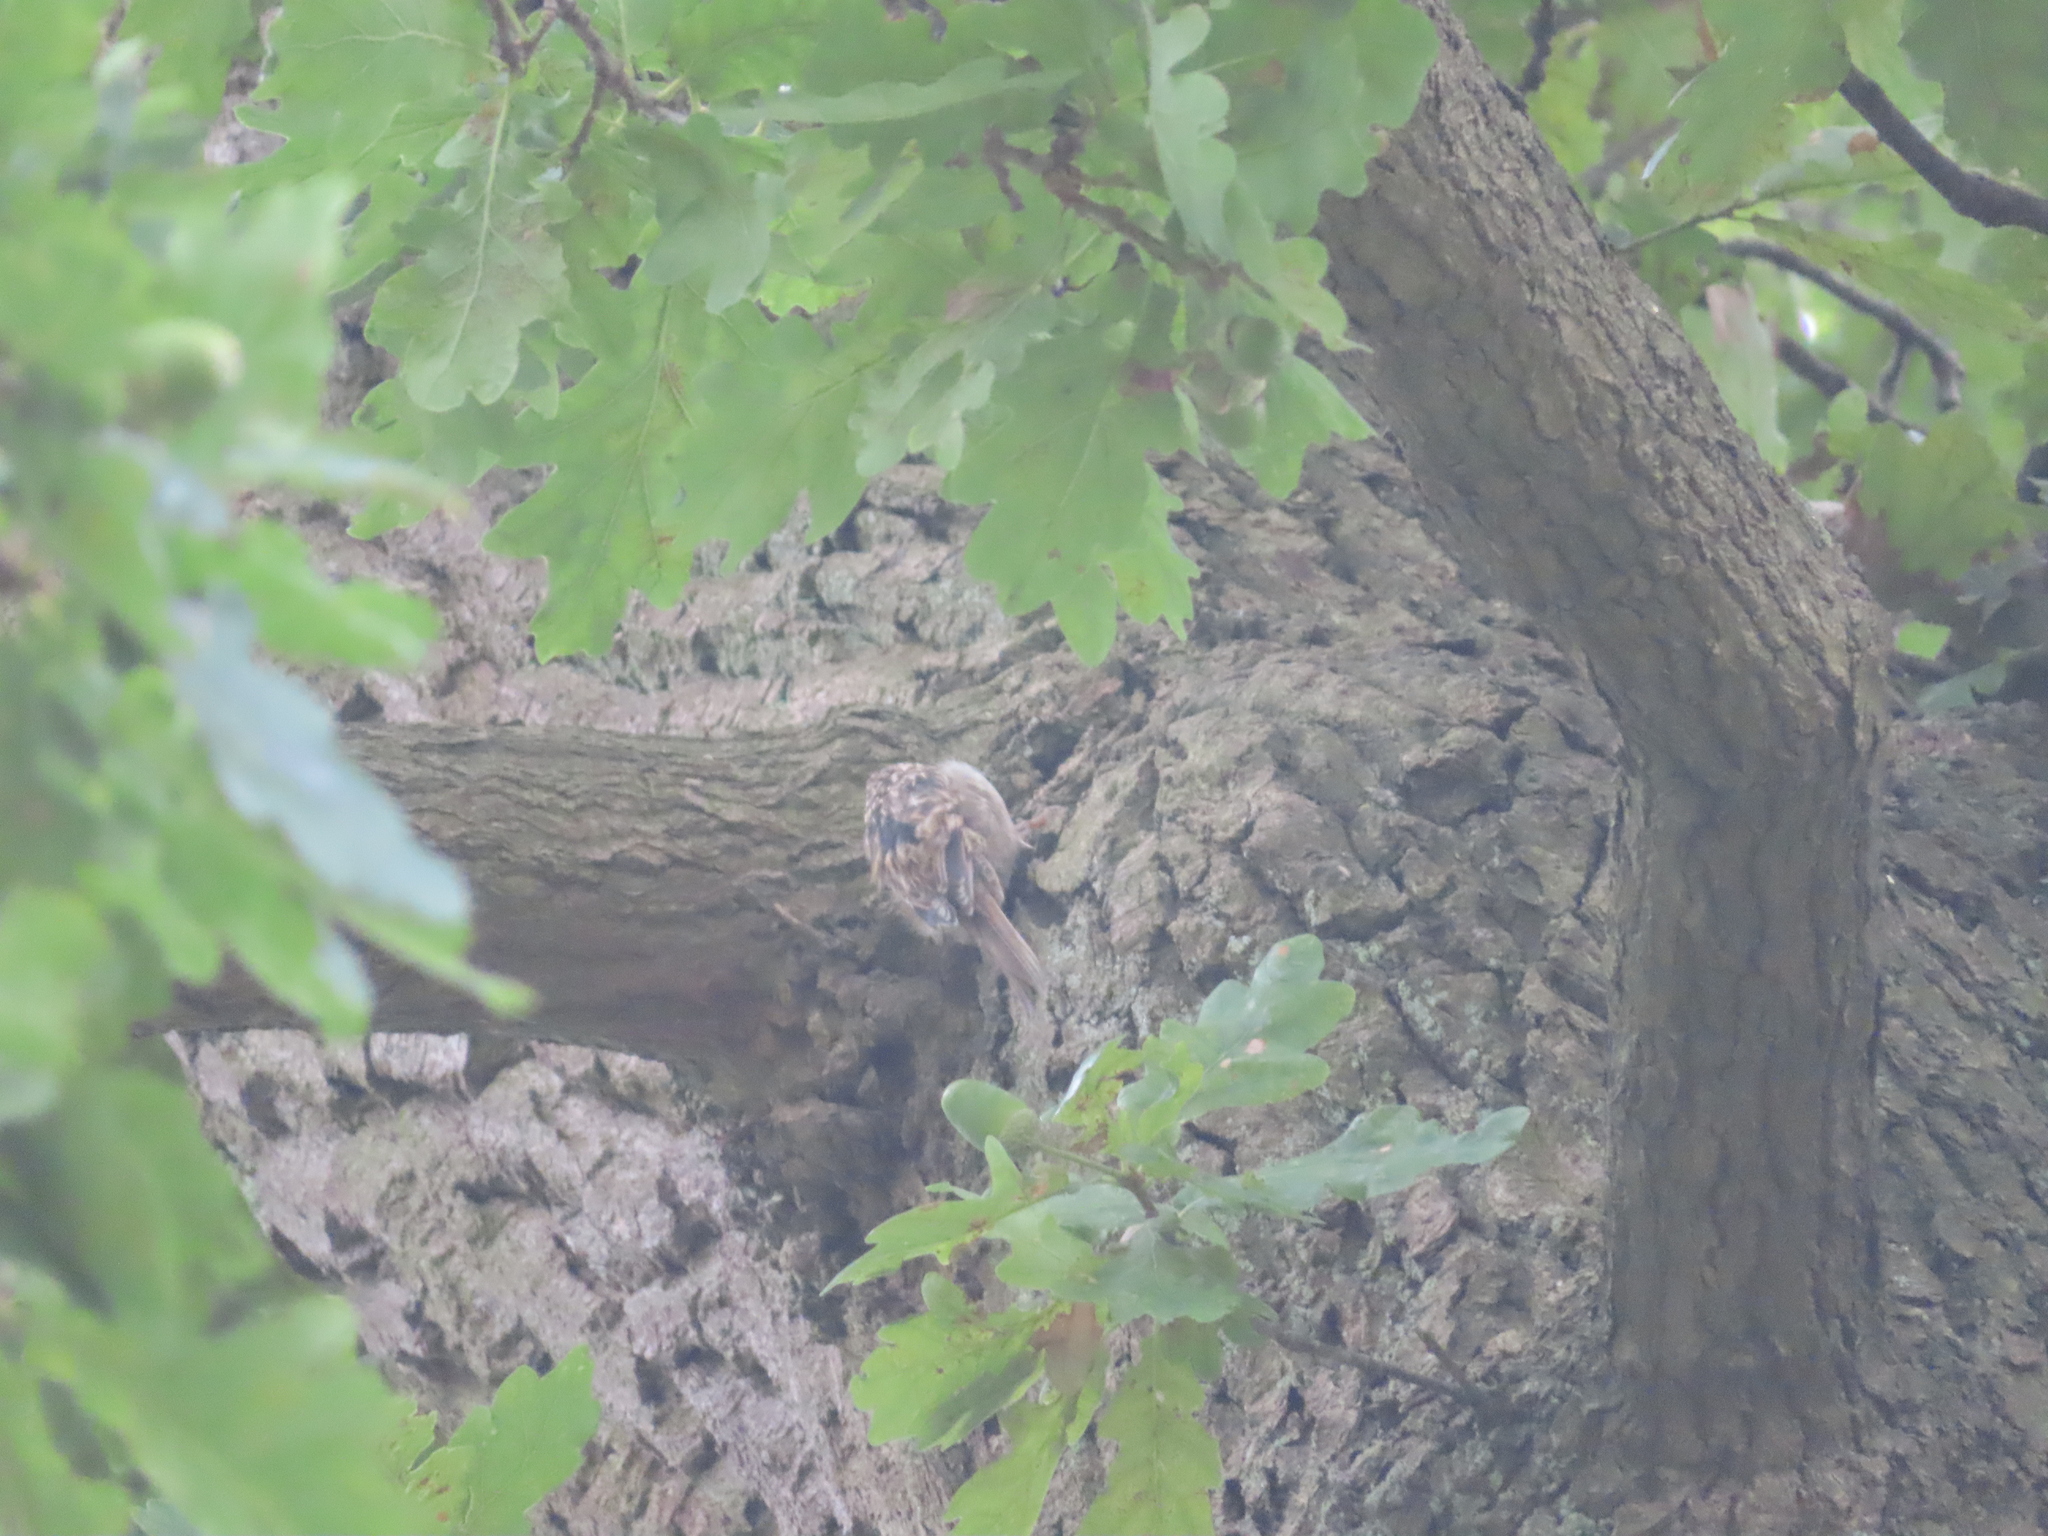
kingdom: Animalia
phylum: Chordata
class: Aves
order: Passeriformes
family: Certhiidae
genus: Certhia
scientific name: Certhia brachydactyla
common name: Short-toed treecreeper
